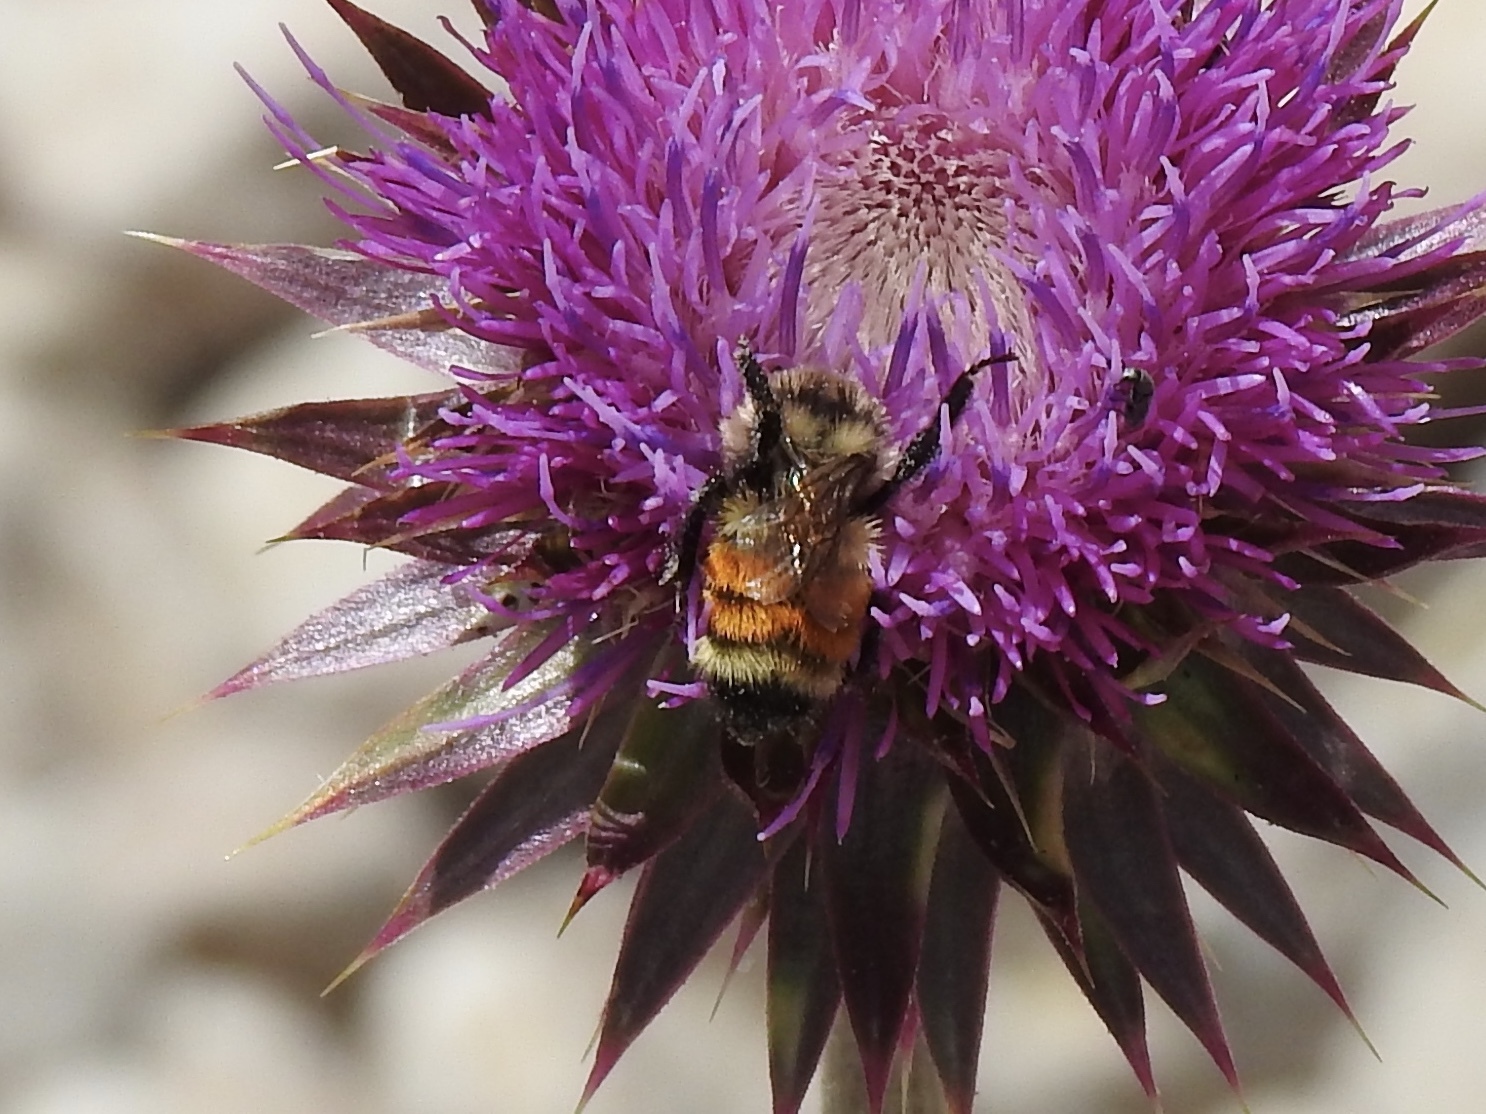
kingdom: Animalia
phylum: Arthropoda
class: Insecta
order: Hymenoptera
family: Apidae
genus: Bombus
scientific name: Bombus huntii
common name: Hunt bumble bee
